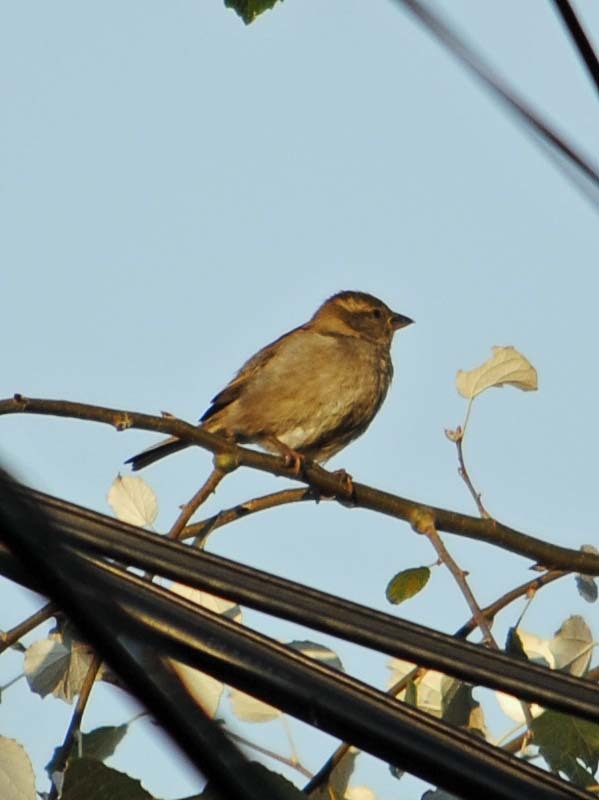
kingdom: Animalia
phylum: Chordata
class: Aves
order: Passeriformes
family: Passeridae
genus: Passer
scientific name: Passer domesticus
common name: House sparrow
